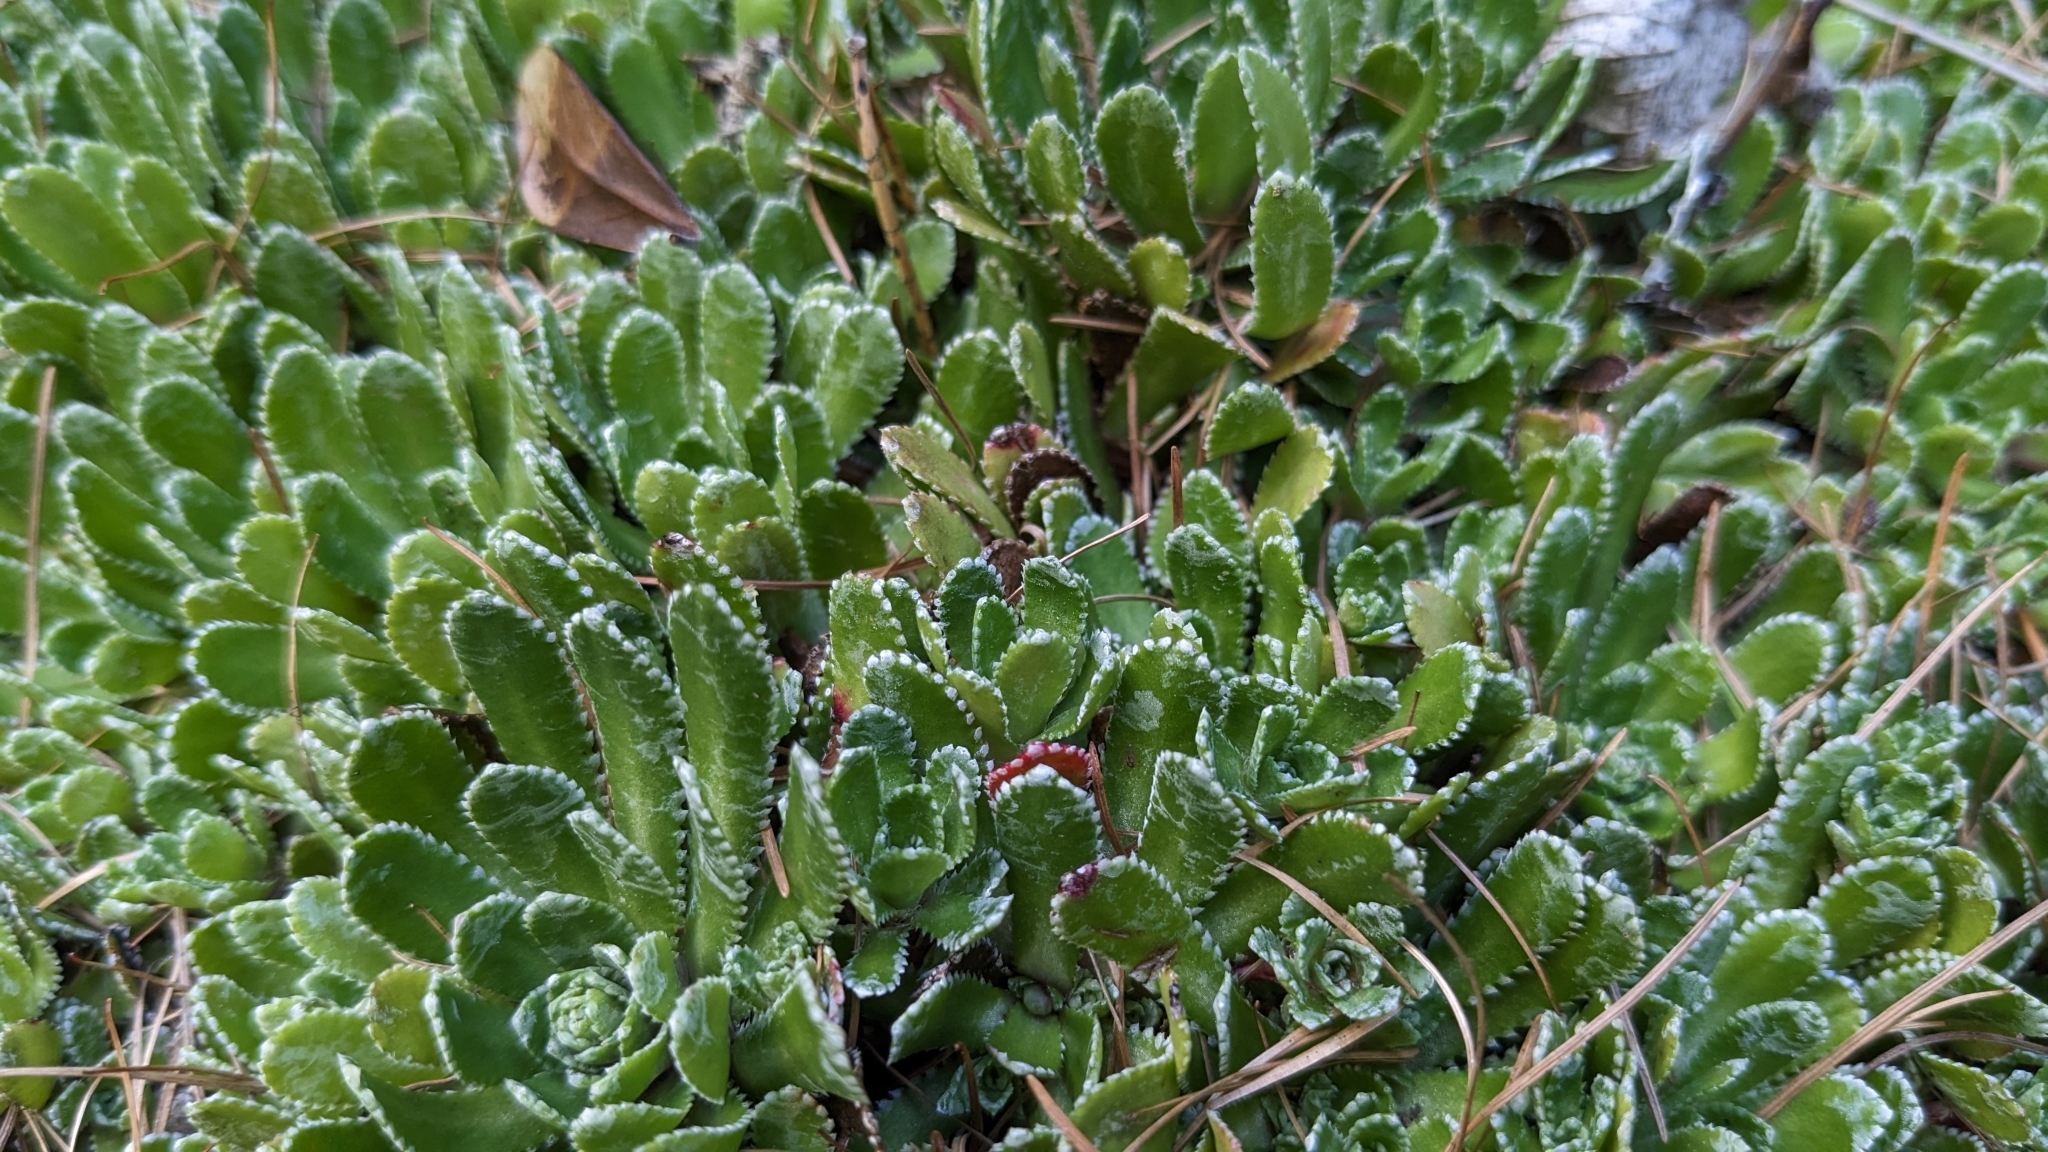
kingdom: Plantae
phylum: Tracheophyta
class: Magnoliopsida
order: Saxifragales
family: Saxifragaceae
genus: Saxifraga
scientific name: Saxifraga paniculata
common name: Livelong saxifrage
